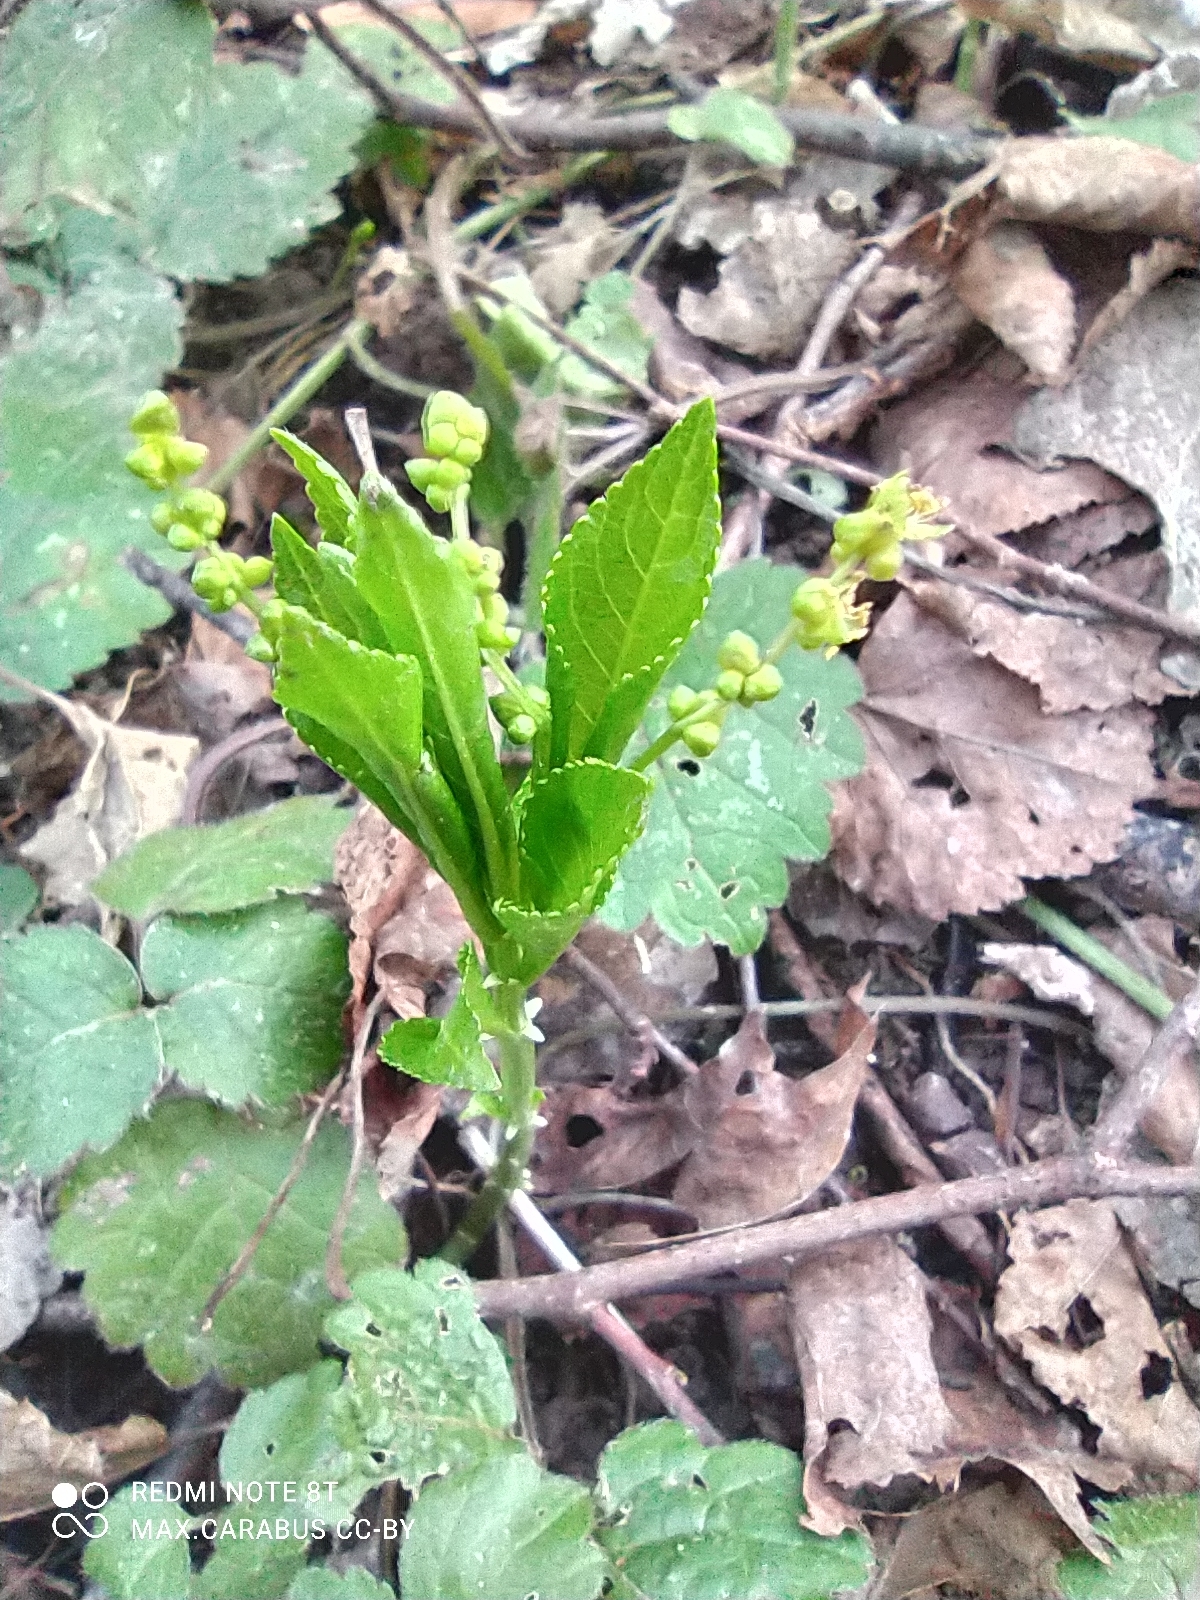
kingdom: Plantae
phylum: Tracheophyta
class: Magnoliopsida
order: Malpighiales
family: Euphorbiaceae
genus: Mercurialis
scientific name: Mercurialis perennis
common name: Dog mercury
